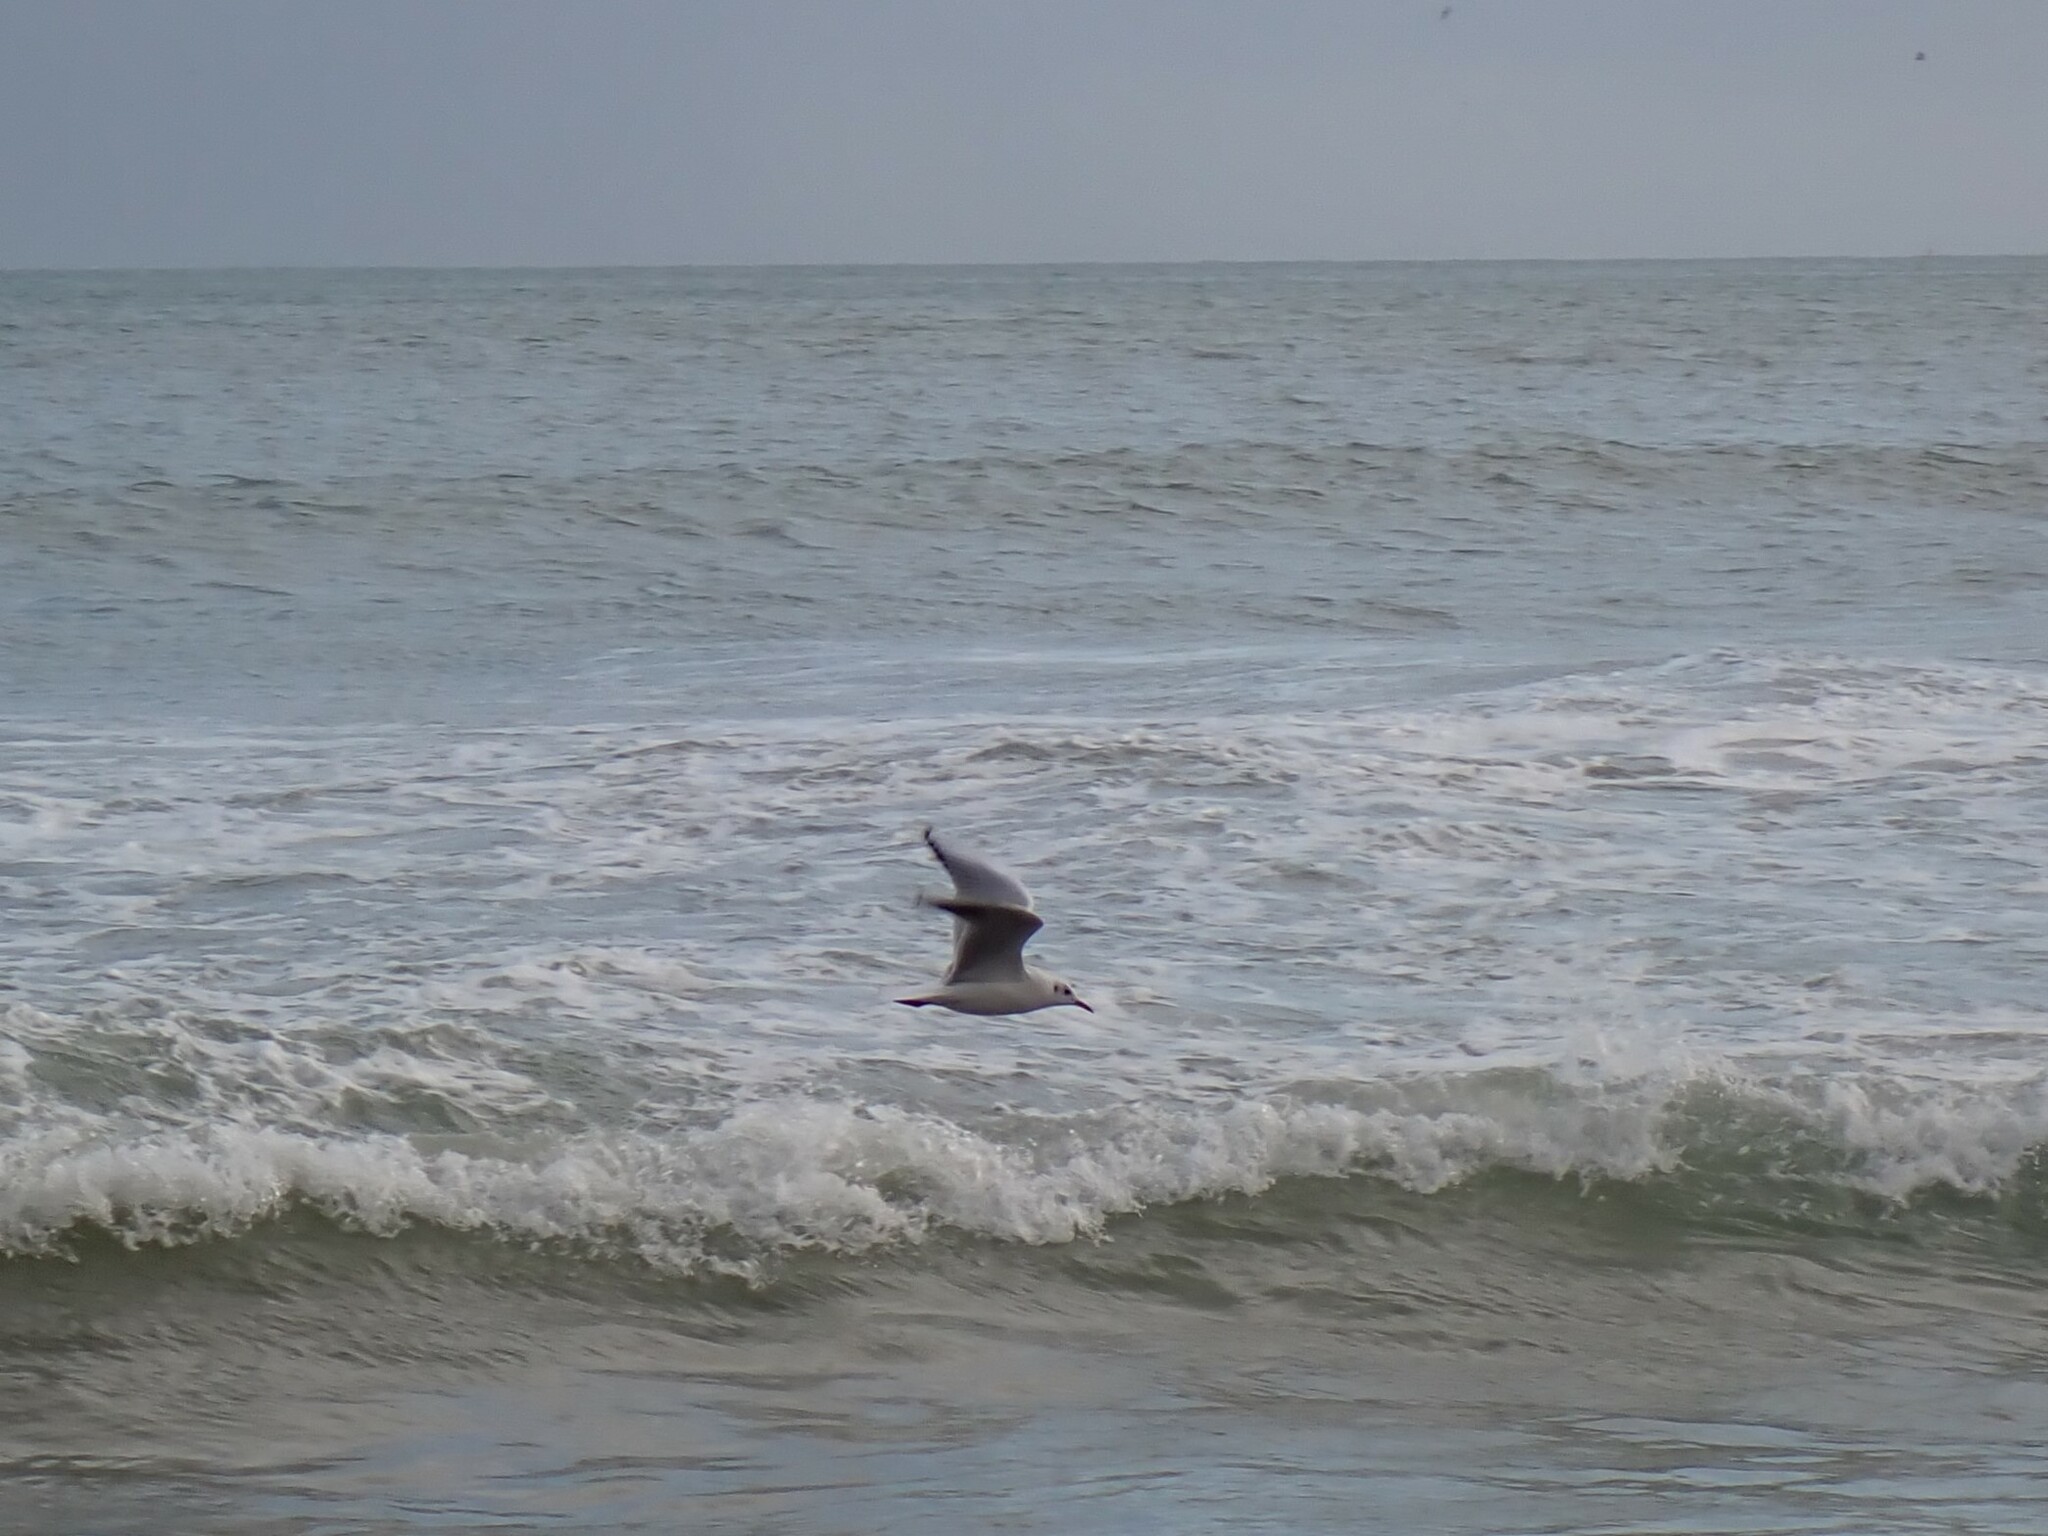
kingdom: Animalia
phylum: Chordata
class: Aves
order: Charadriiformes
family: Laridae
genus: Chroicocephalus
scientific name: Chroicocephalus ridibundus
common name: Black-headed gull
